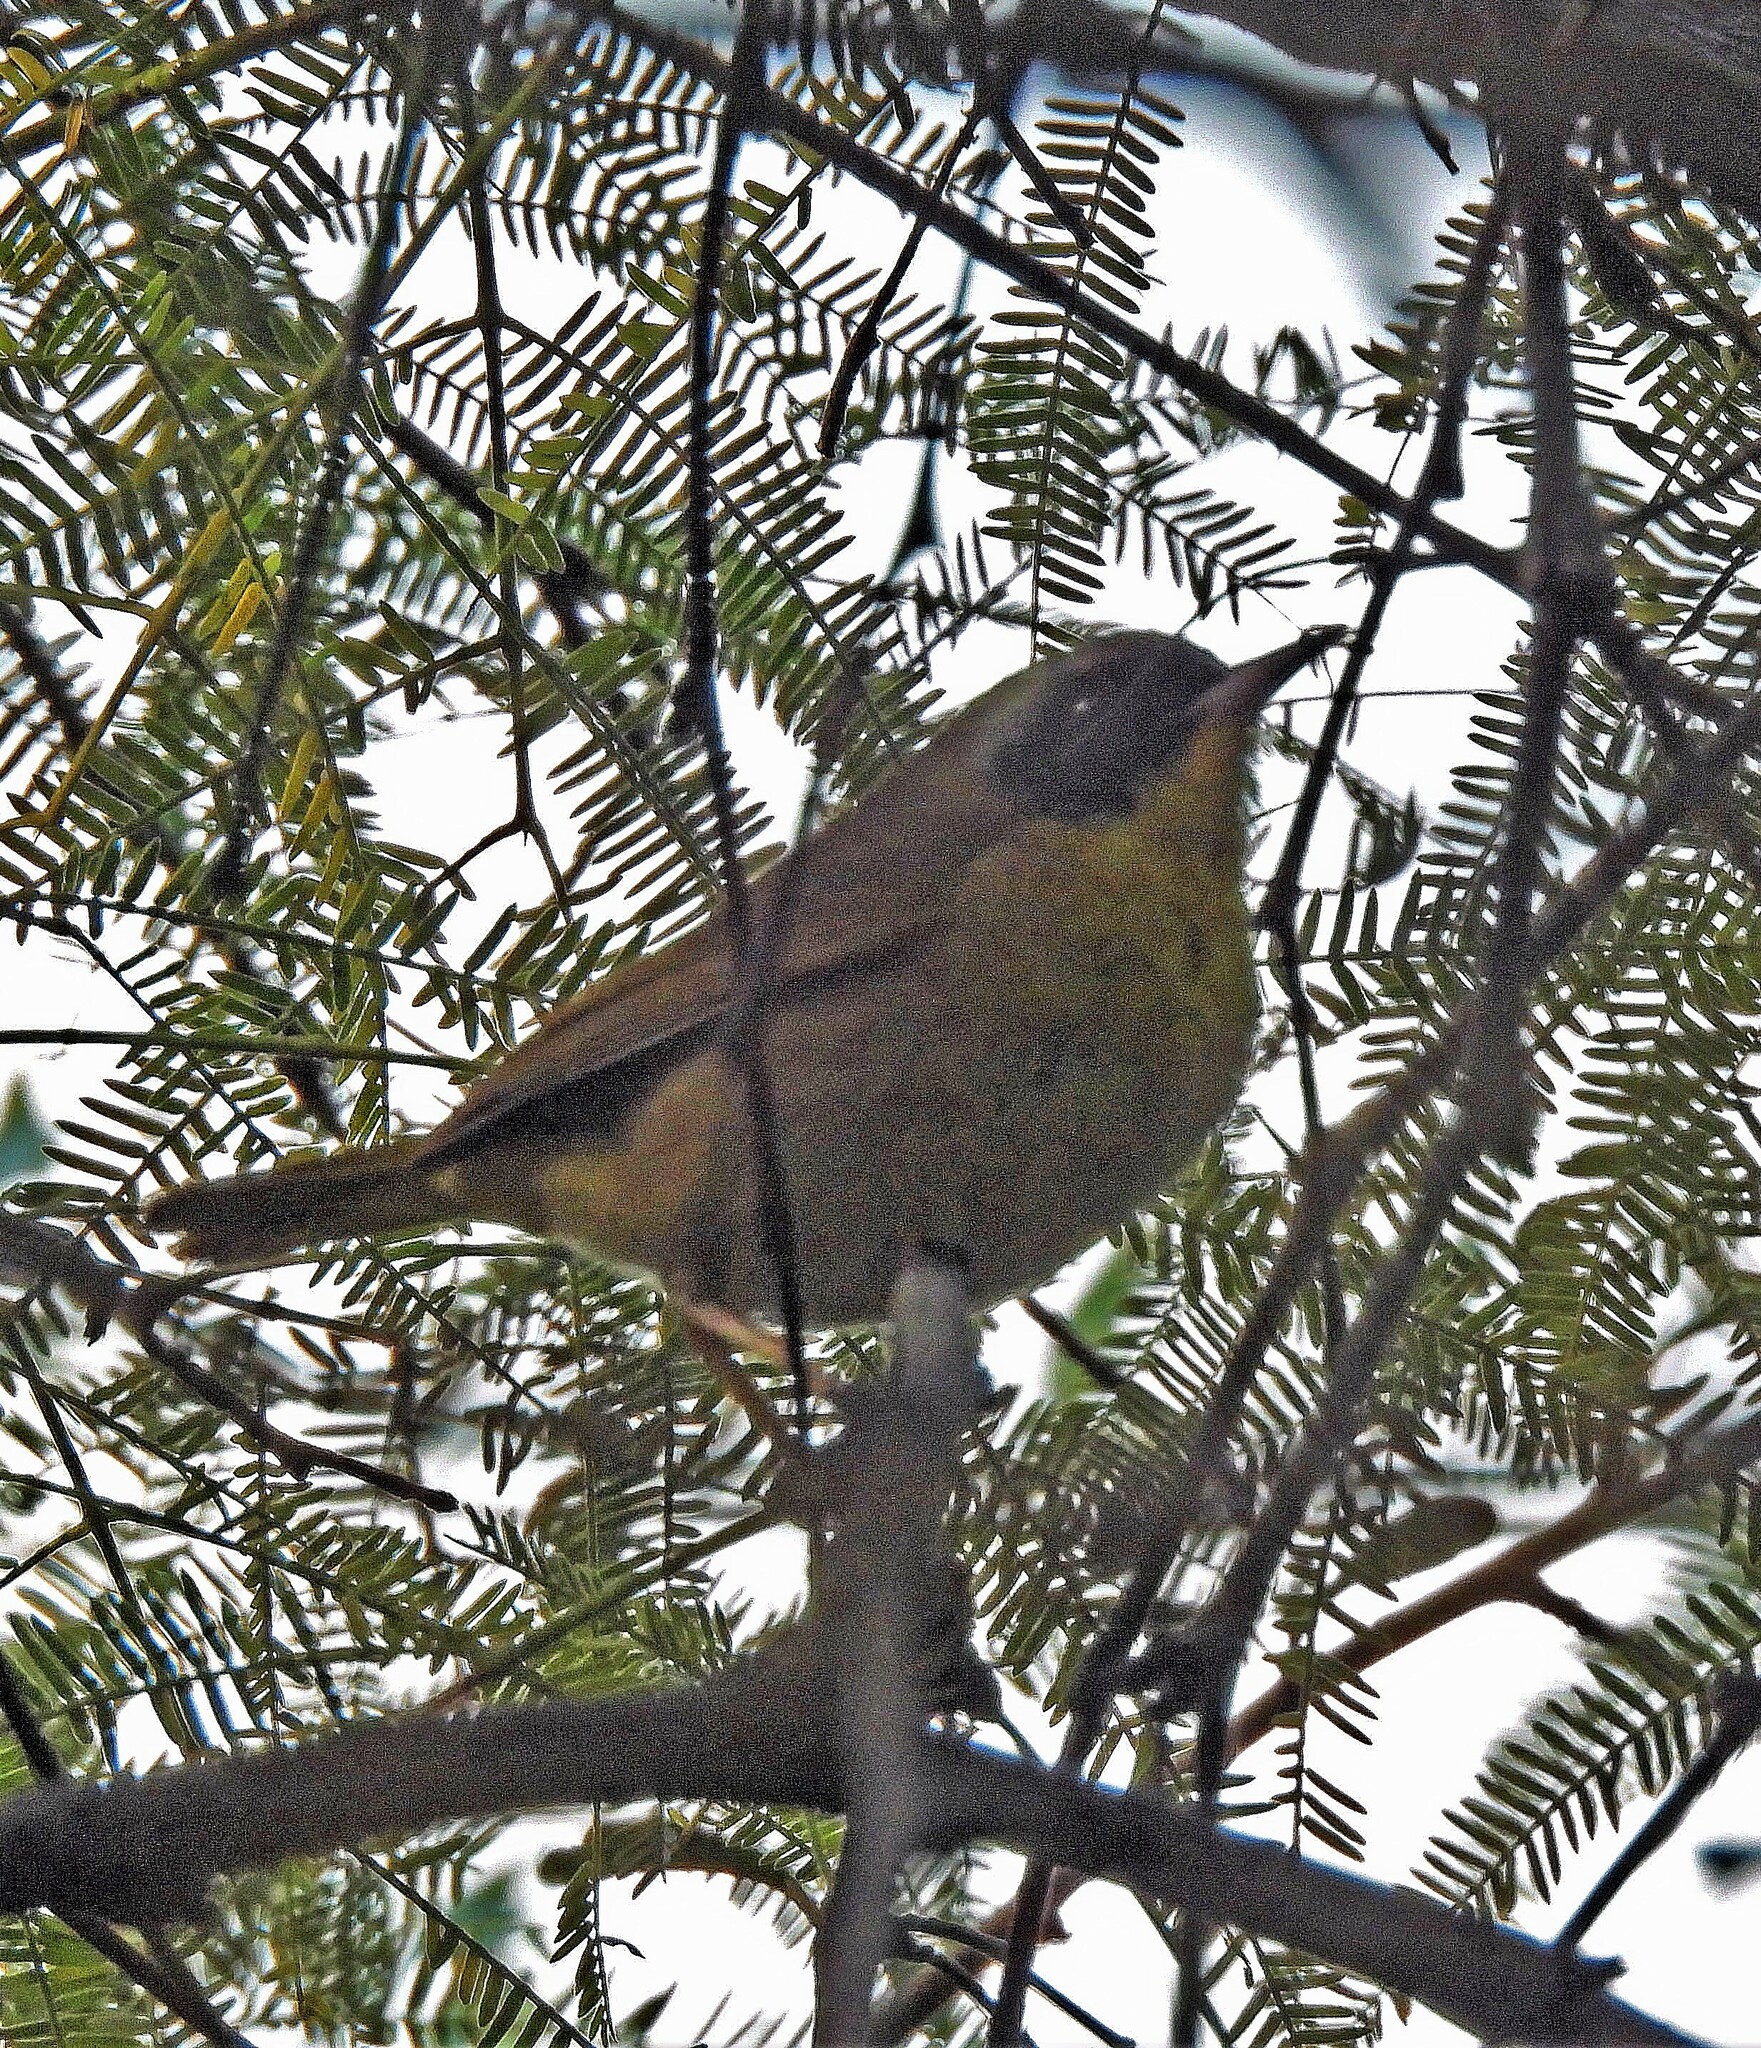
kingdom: Animalia
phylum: Chordata
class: Aves
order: Passeriformes
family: Parulidae
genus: Geothlypis
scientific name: Geothlypis trichas
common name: Common yellowthroat
